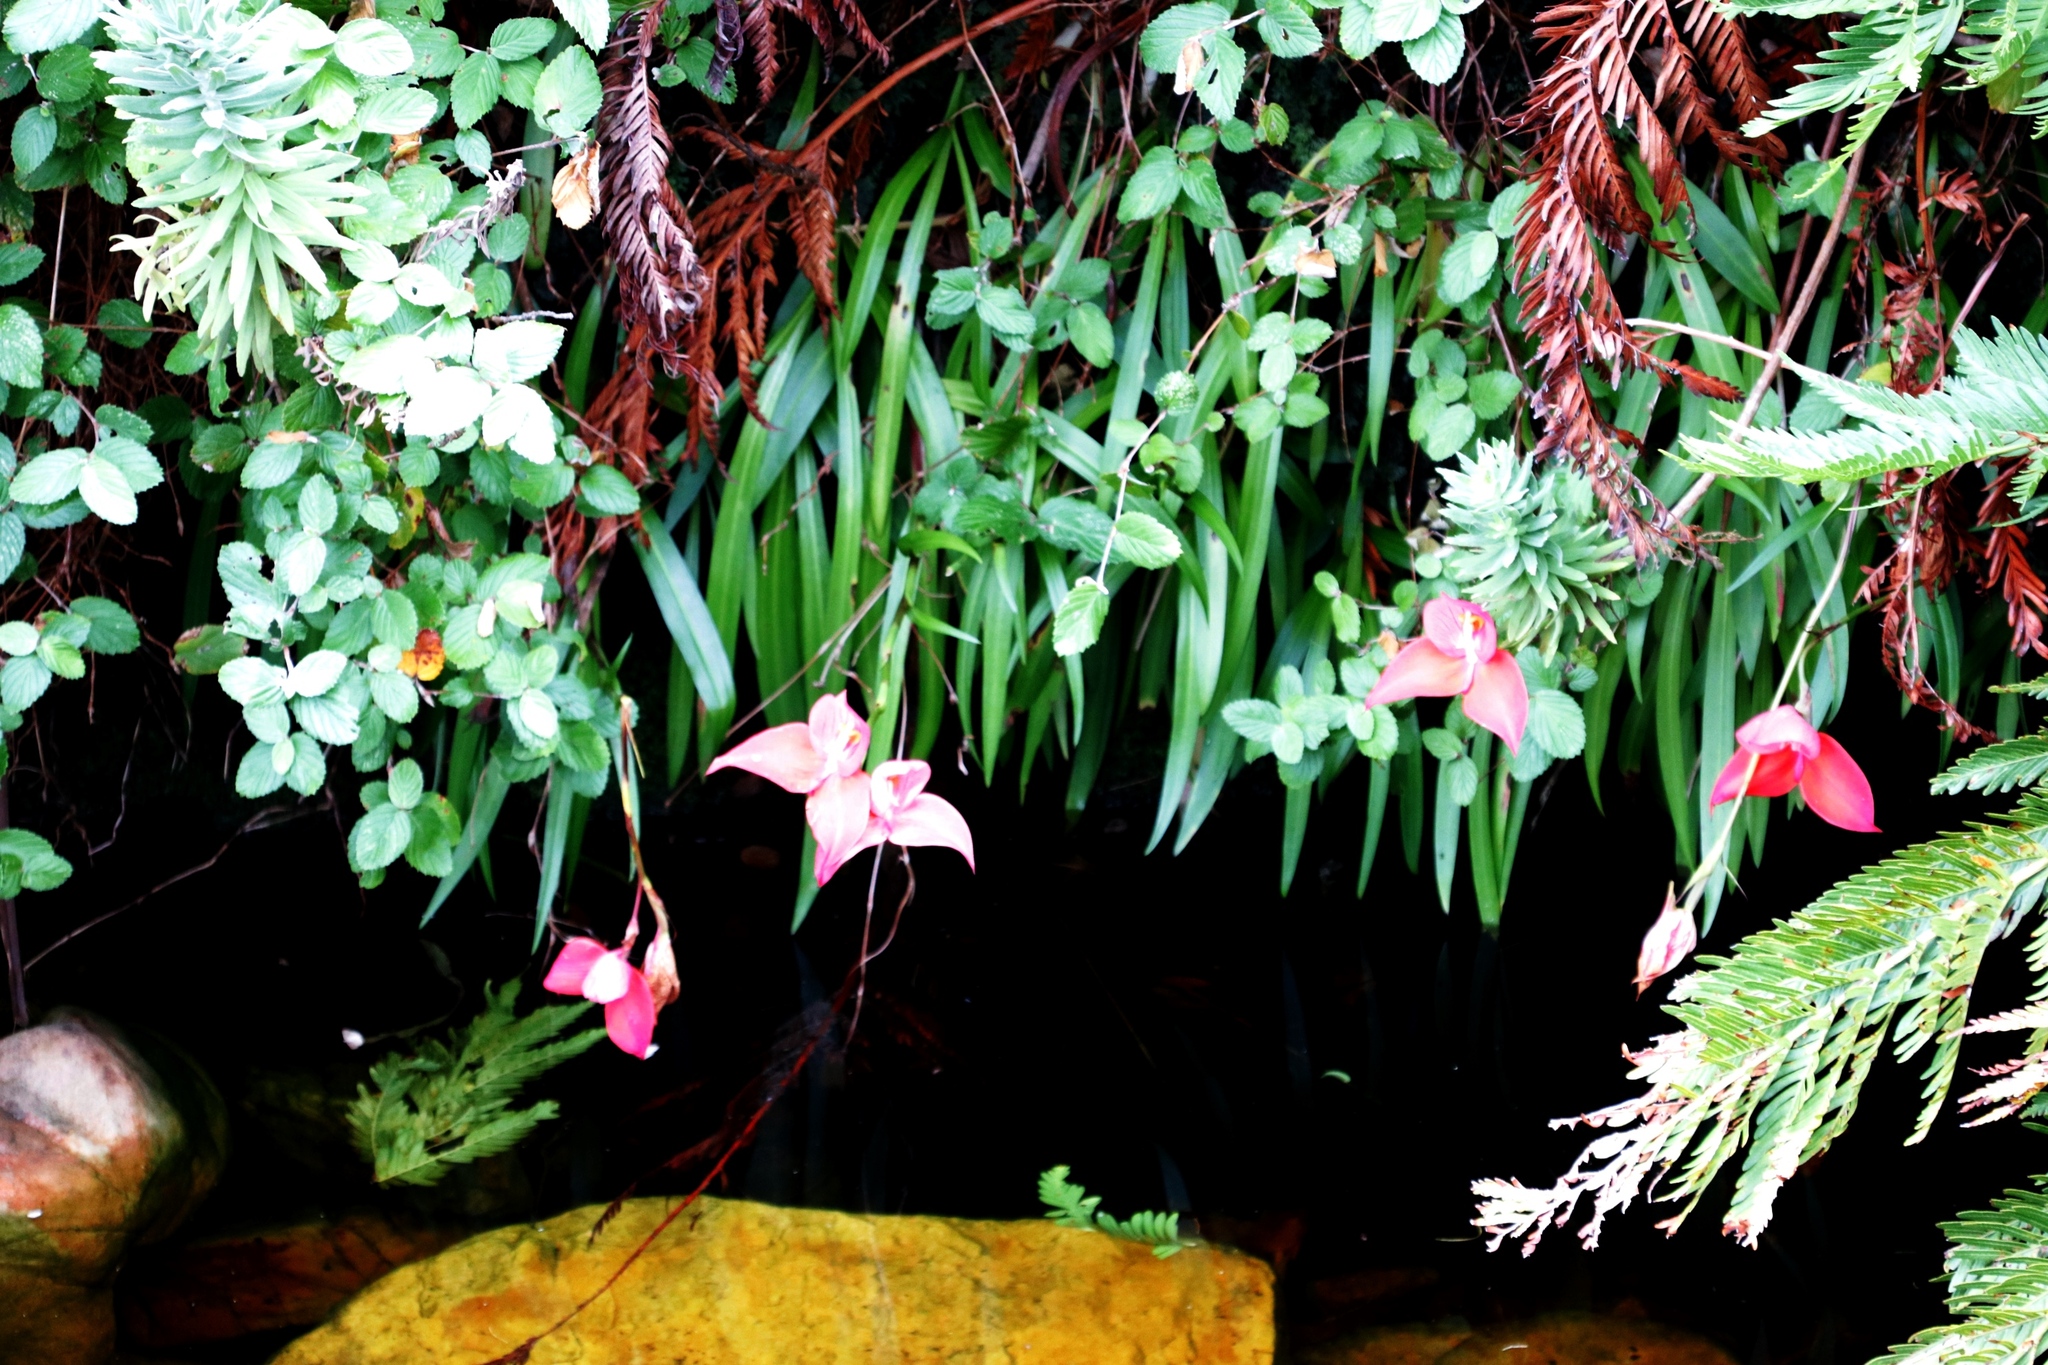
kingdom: Plantae
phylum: Tracheophyta
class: Liliopsida
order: Asparagales
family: Orchidaceae
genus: Disa
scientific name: Disa uniflora
